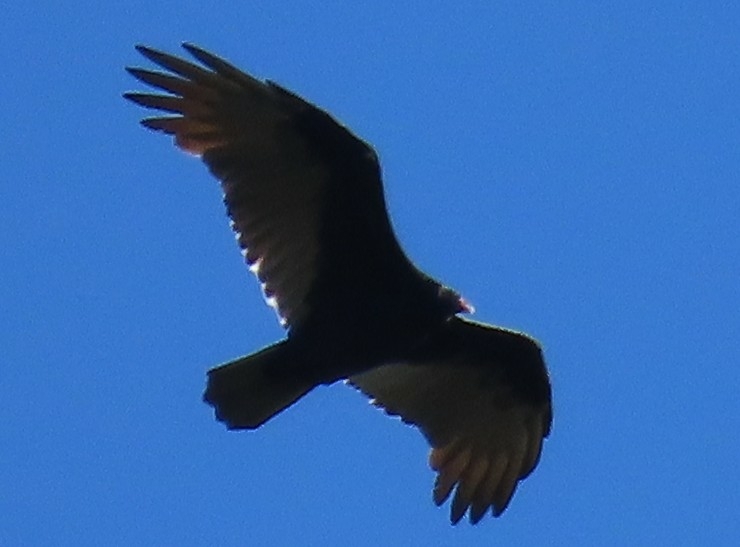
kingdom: Animalia
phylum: Chordata
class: Aves
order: Accipitriformes
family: Cathartidae
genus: Cathartes
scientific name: Cathartes aura
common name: Turkey vulture
